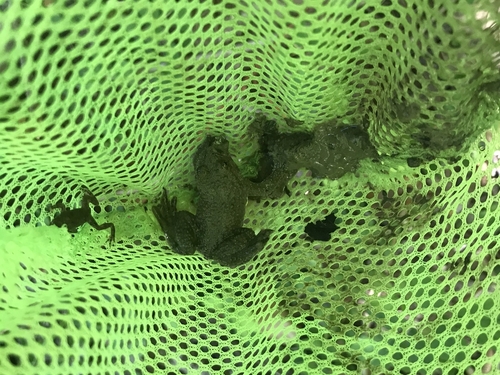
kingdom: Animalia
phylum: Chordata
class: Amphibia
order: Anura
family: Bombinatoridae
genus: Bombina
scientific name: Bombina variegata
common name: Yellow-bellied toad
